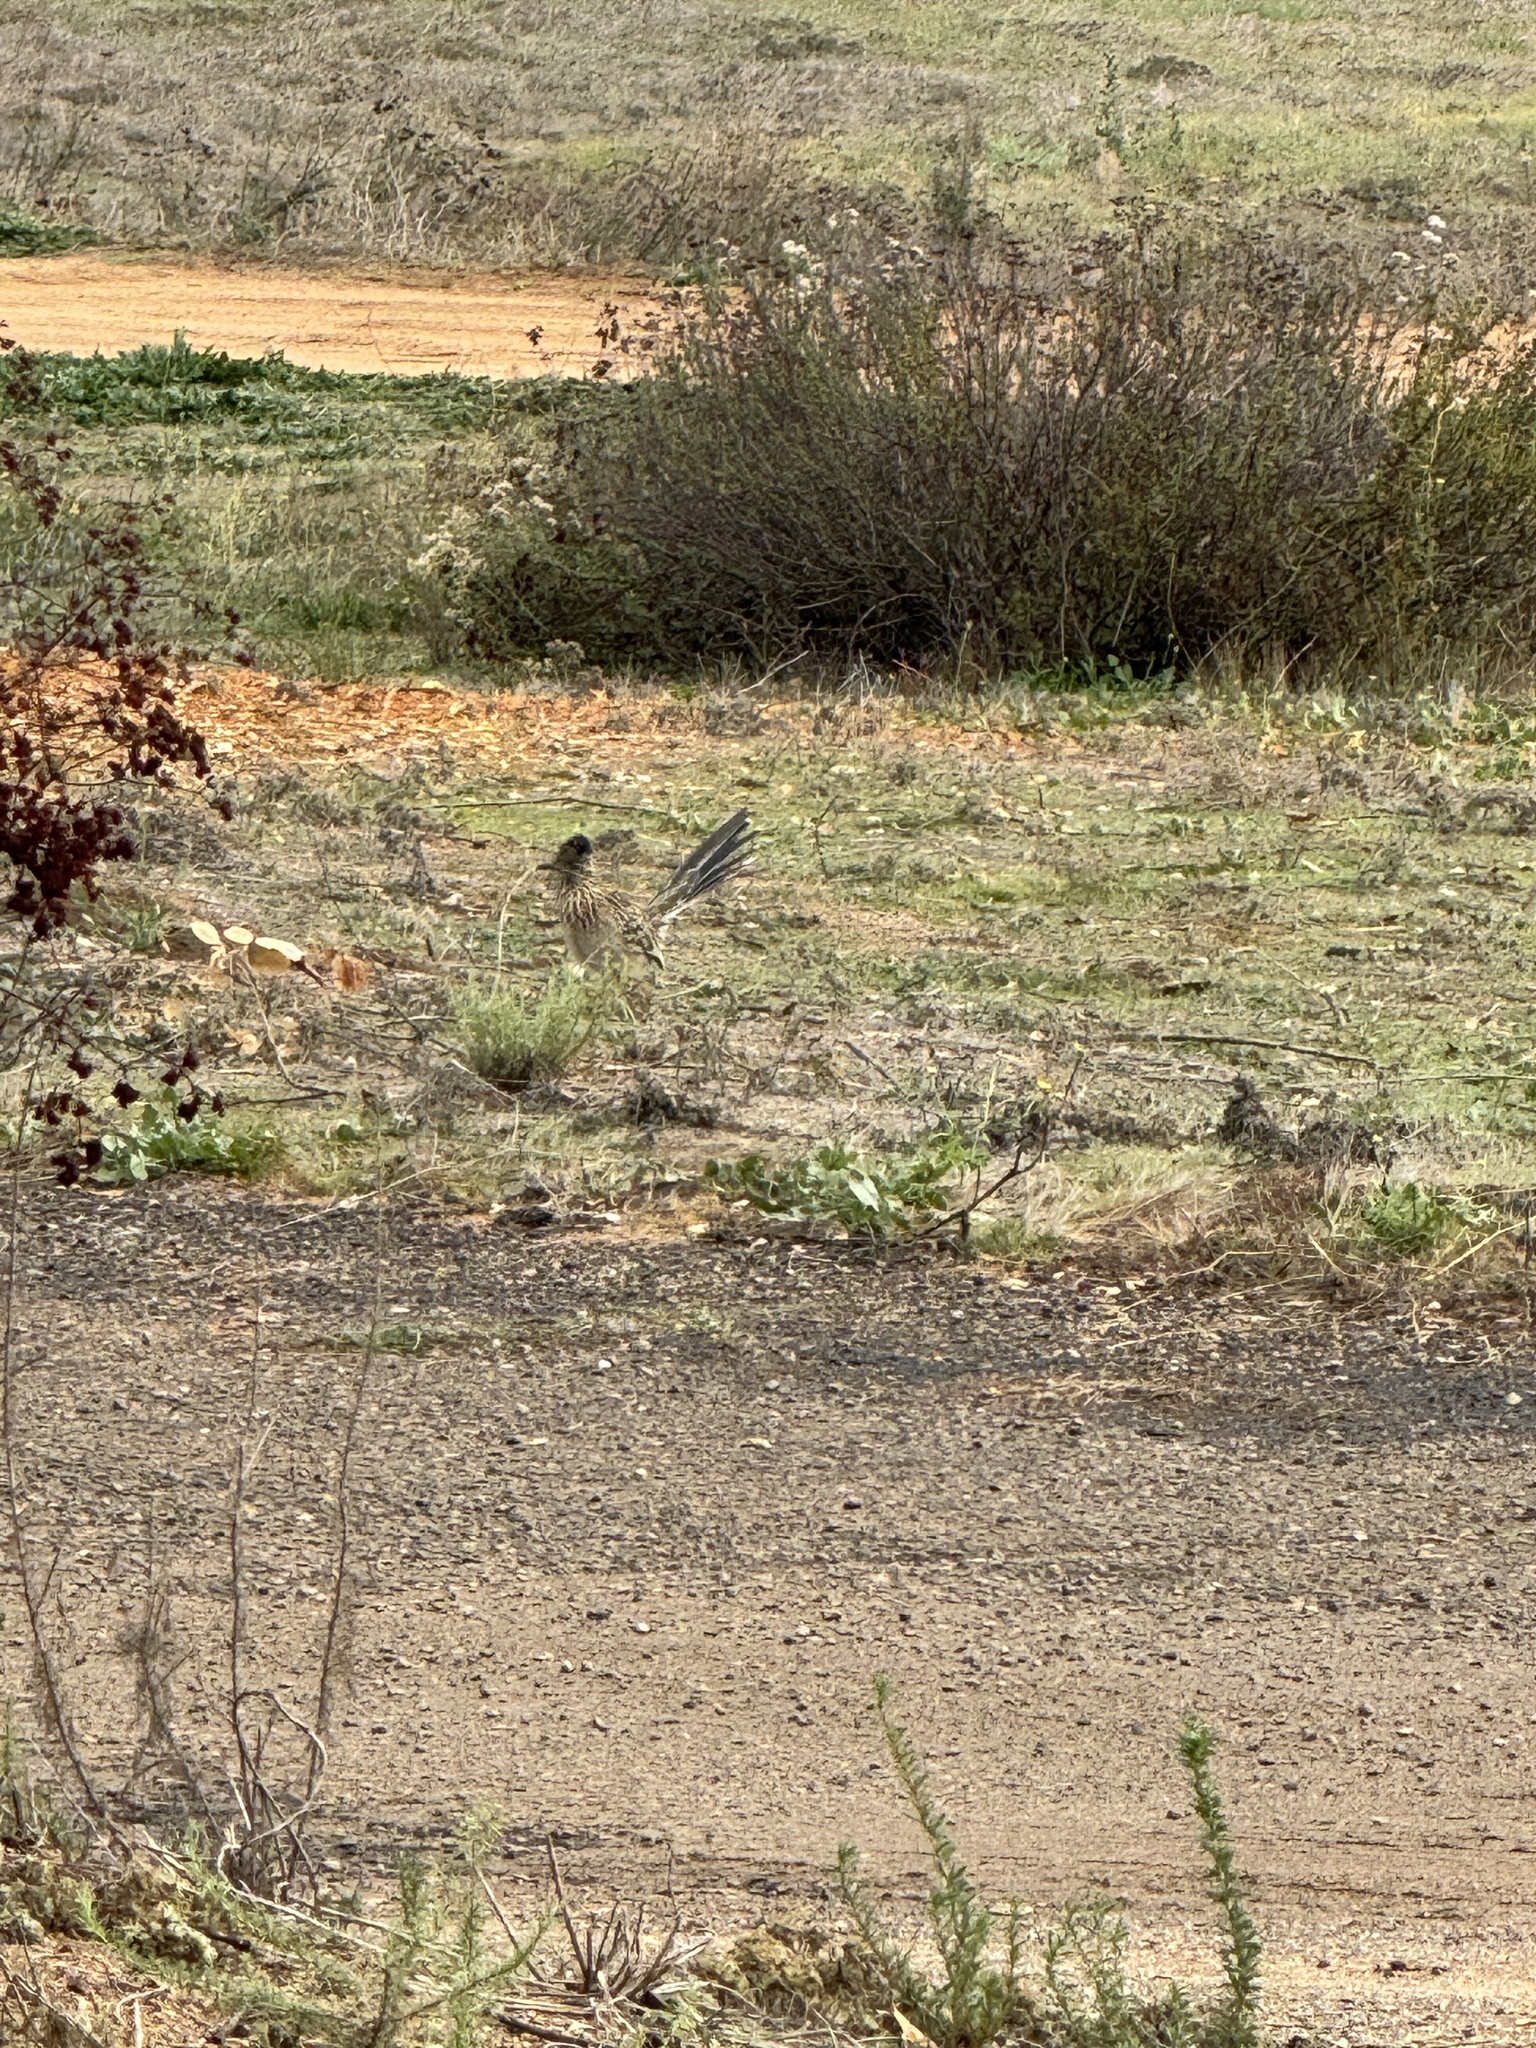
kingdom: Animalia
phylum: Chordata
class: Aves
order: Cuculiformes
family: Cuculidae
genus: Geococcyx
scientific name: Geococcyx californianus
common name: Greater roadrunner
